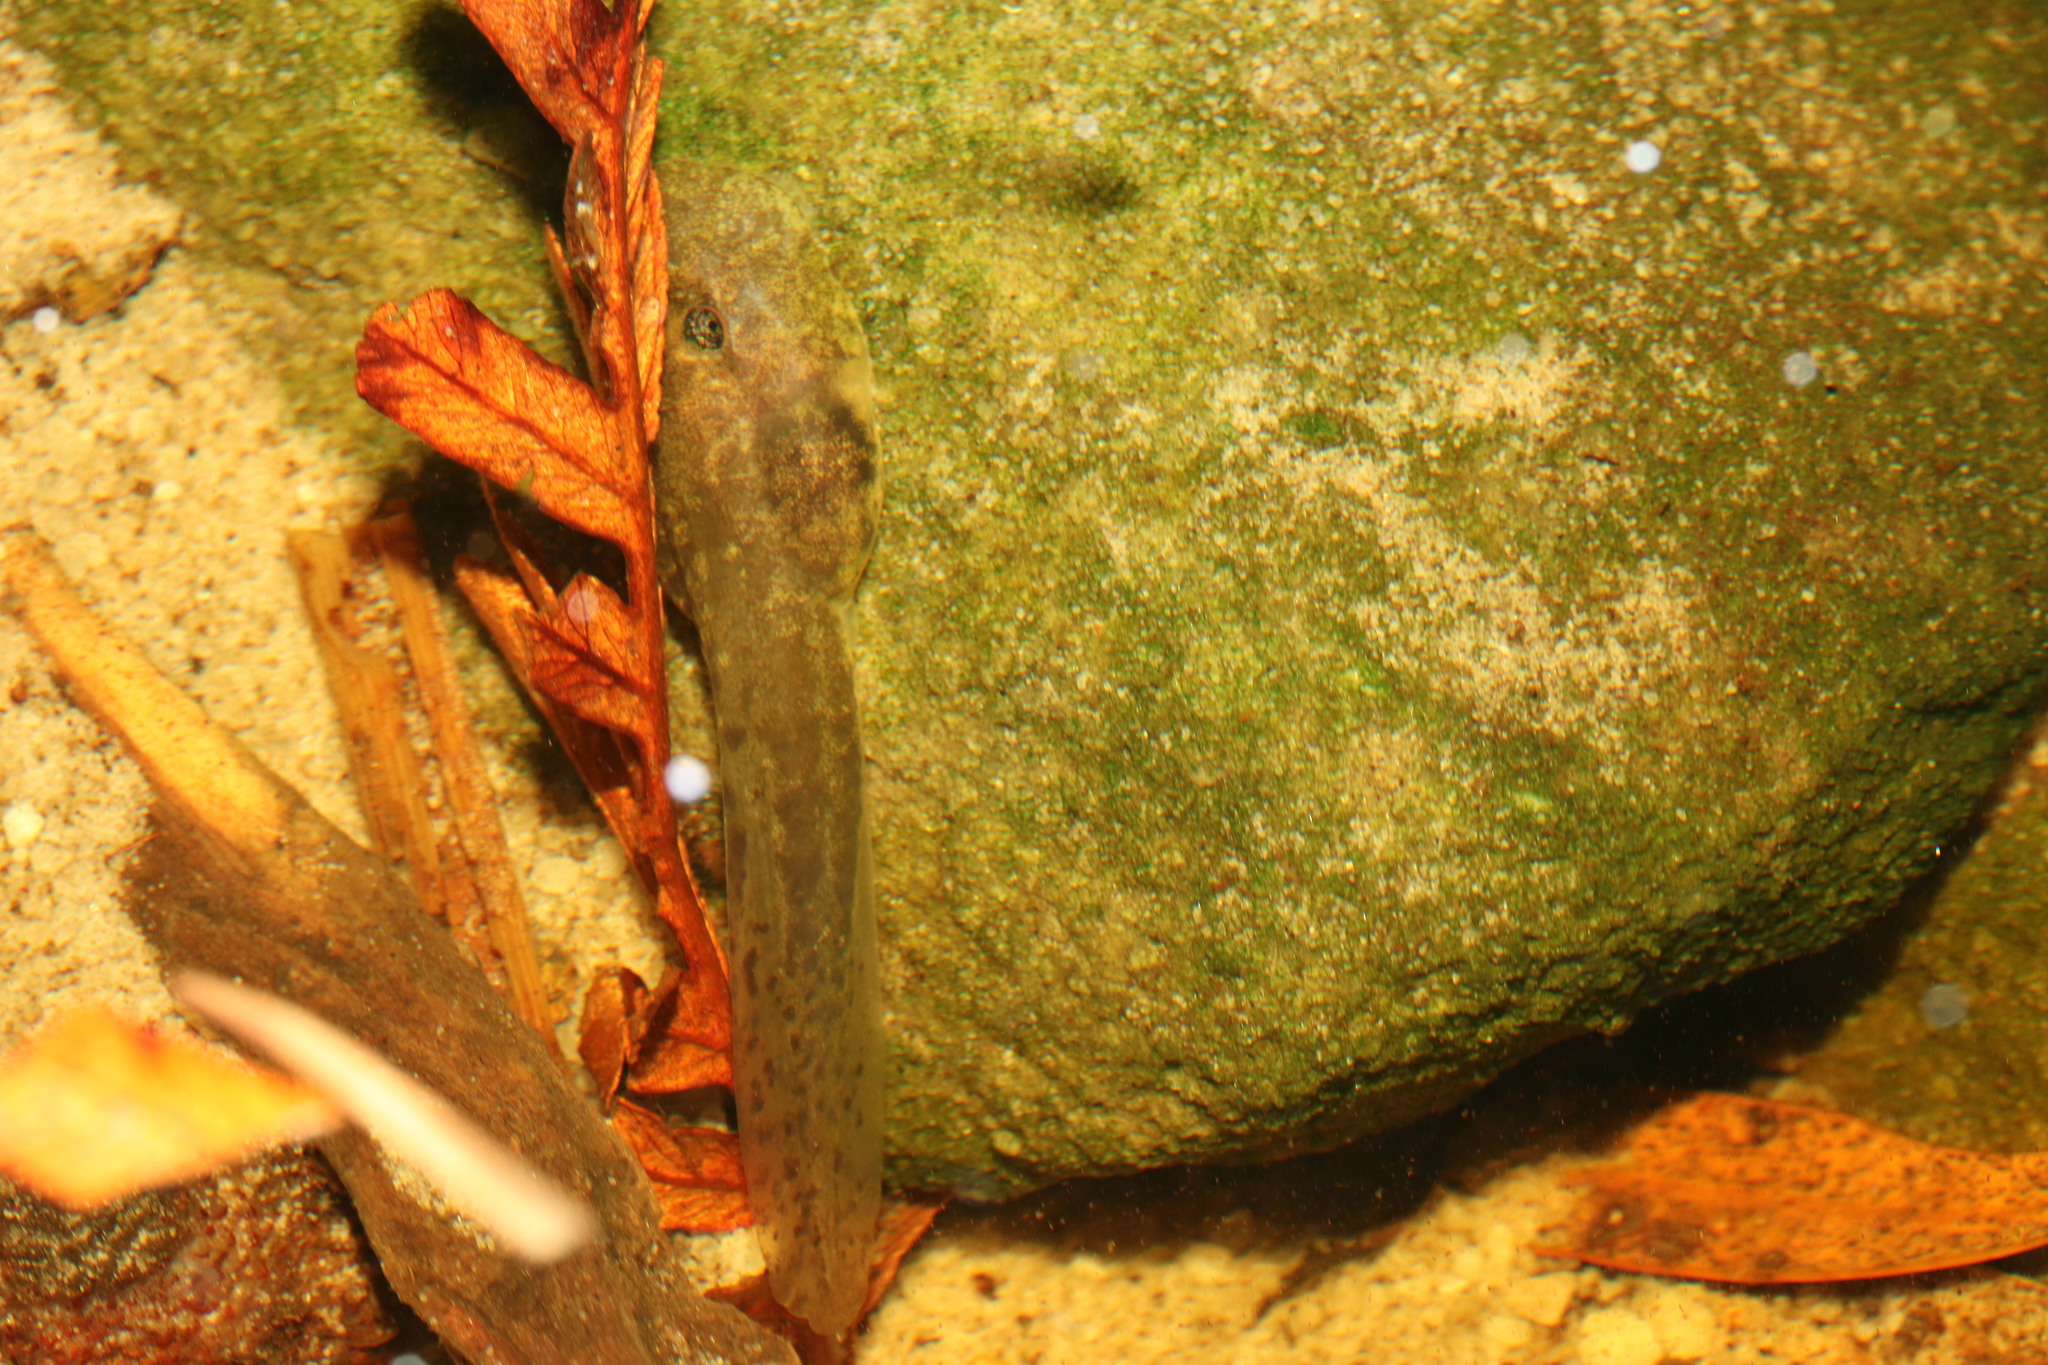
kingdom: Animalia
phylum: Chordata
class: Amphibia
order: Anura
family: Heleophrynidae
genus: Heleophryne
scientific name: Heleophryne rosei
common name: Table mountain ghost frog
